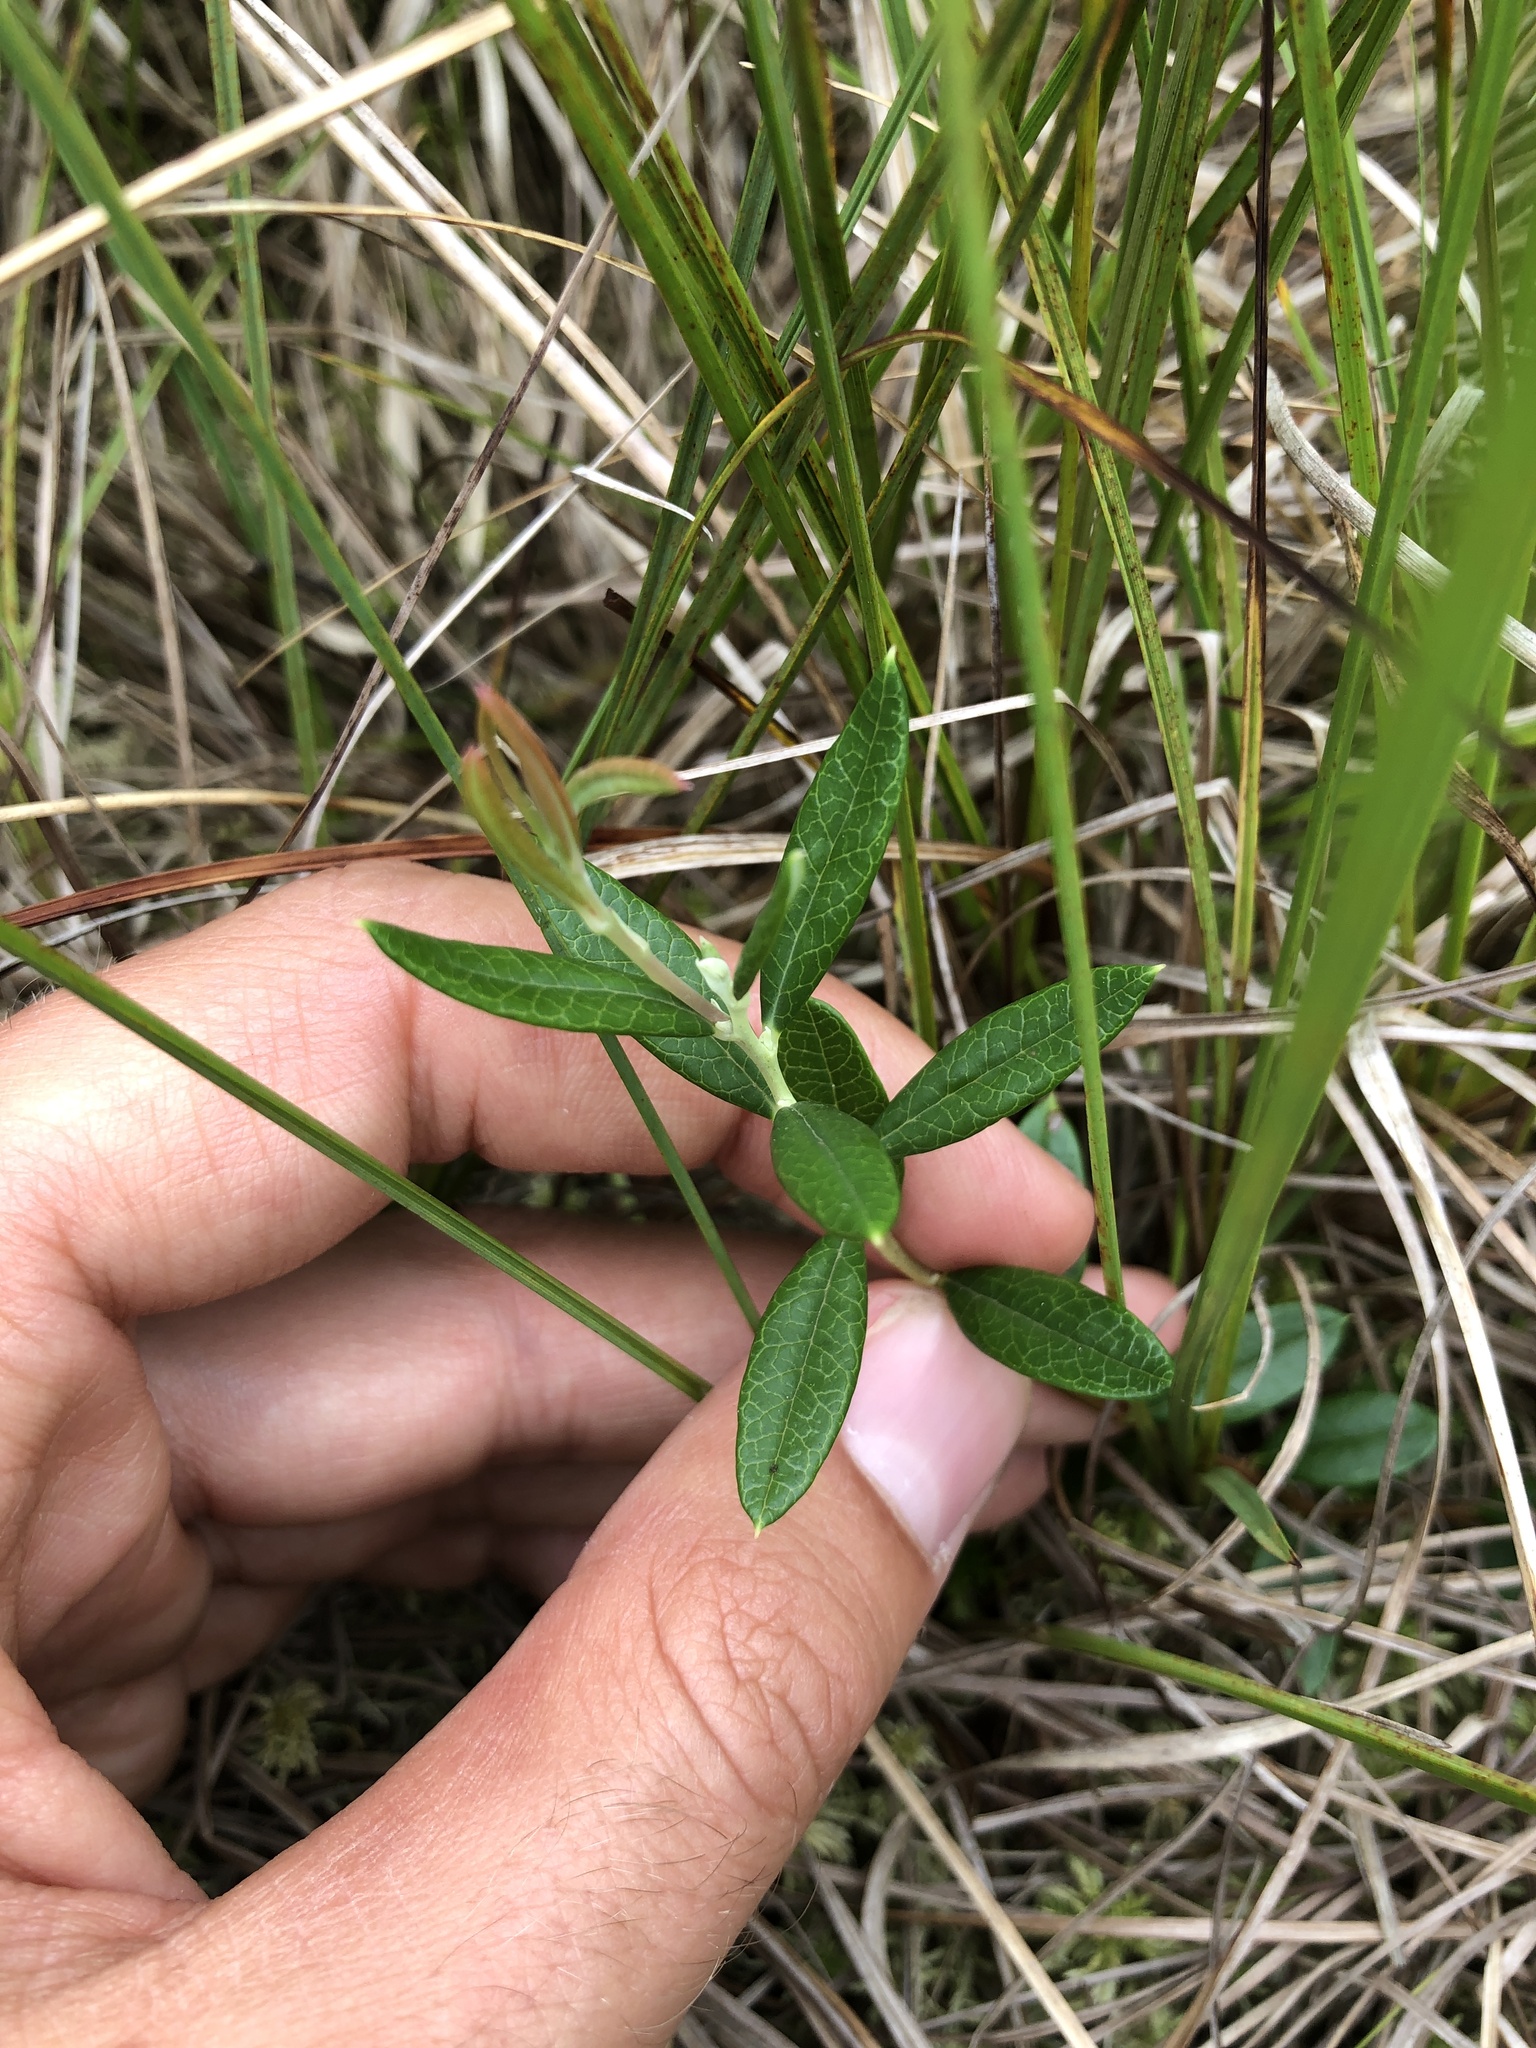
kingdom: Plantae
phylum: Tracheophyta
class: Magnoliopsida
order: Ericales
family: Ericaceae
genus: Andromeda
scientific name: Andromeda polifolia
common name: Bog-rosemary
